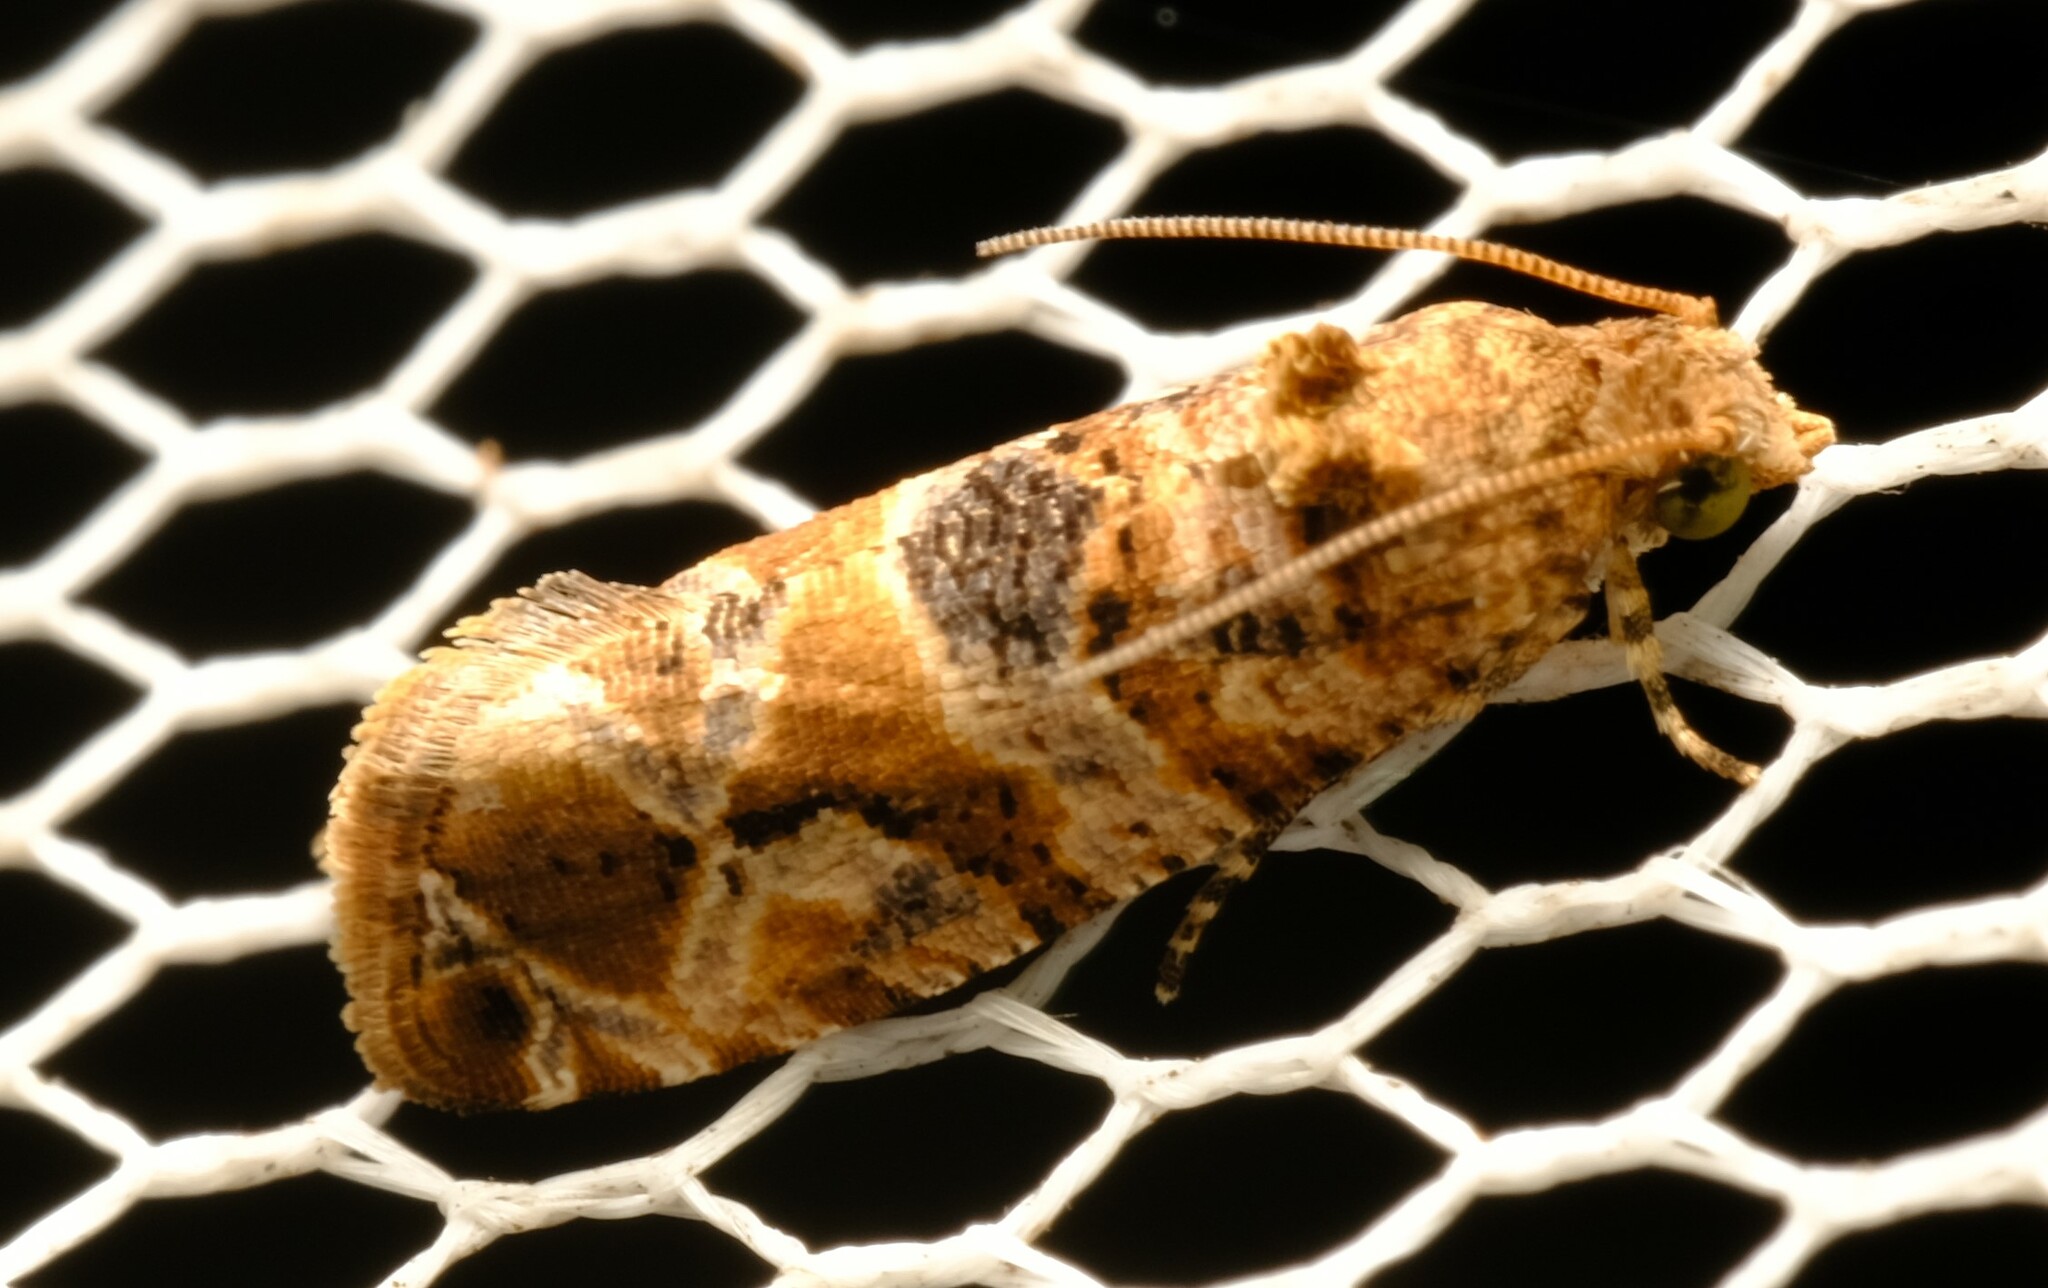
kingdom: Animalia
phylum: Arthropoda
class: Insecta
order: Lepidoptera
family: Tortricidae
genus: Lobesia
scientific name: Lobesia transtrifera
